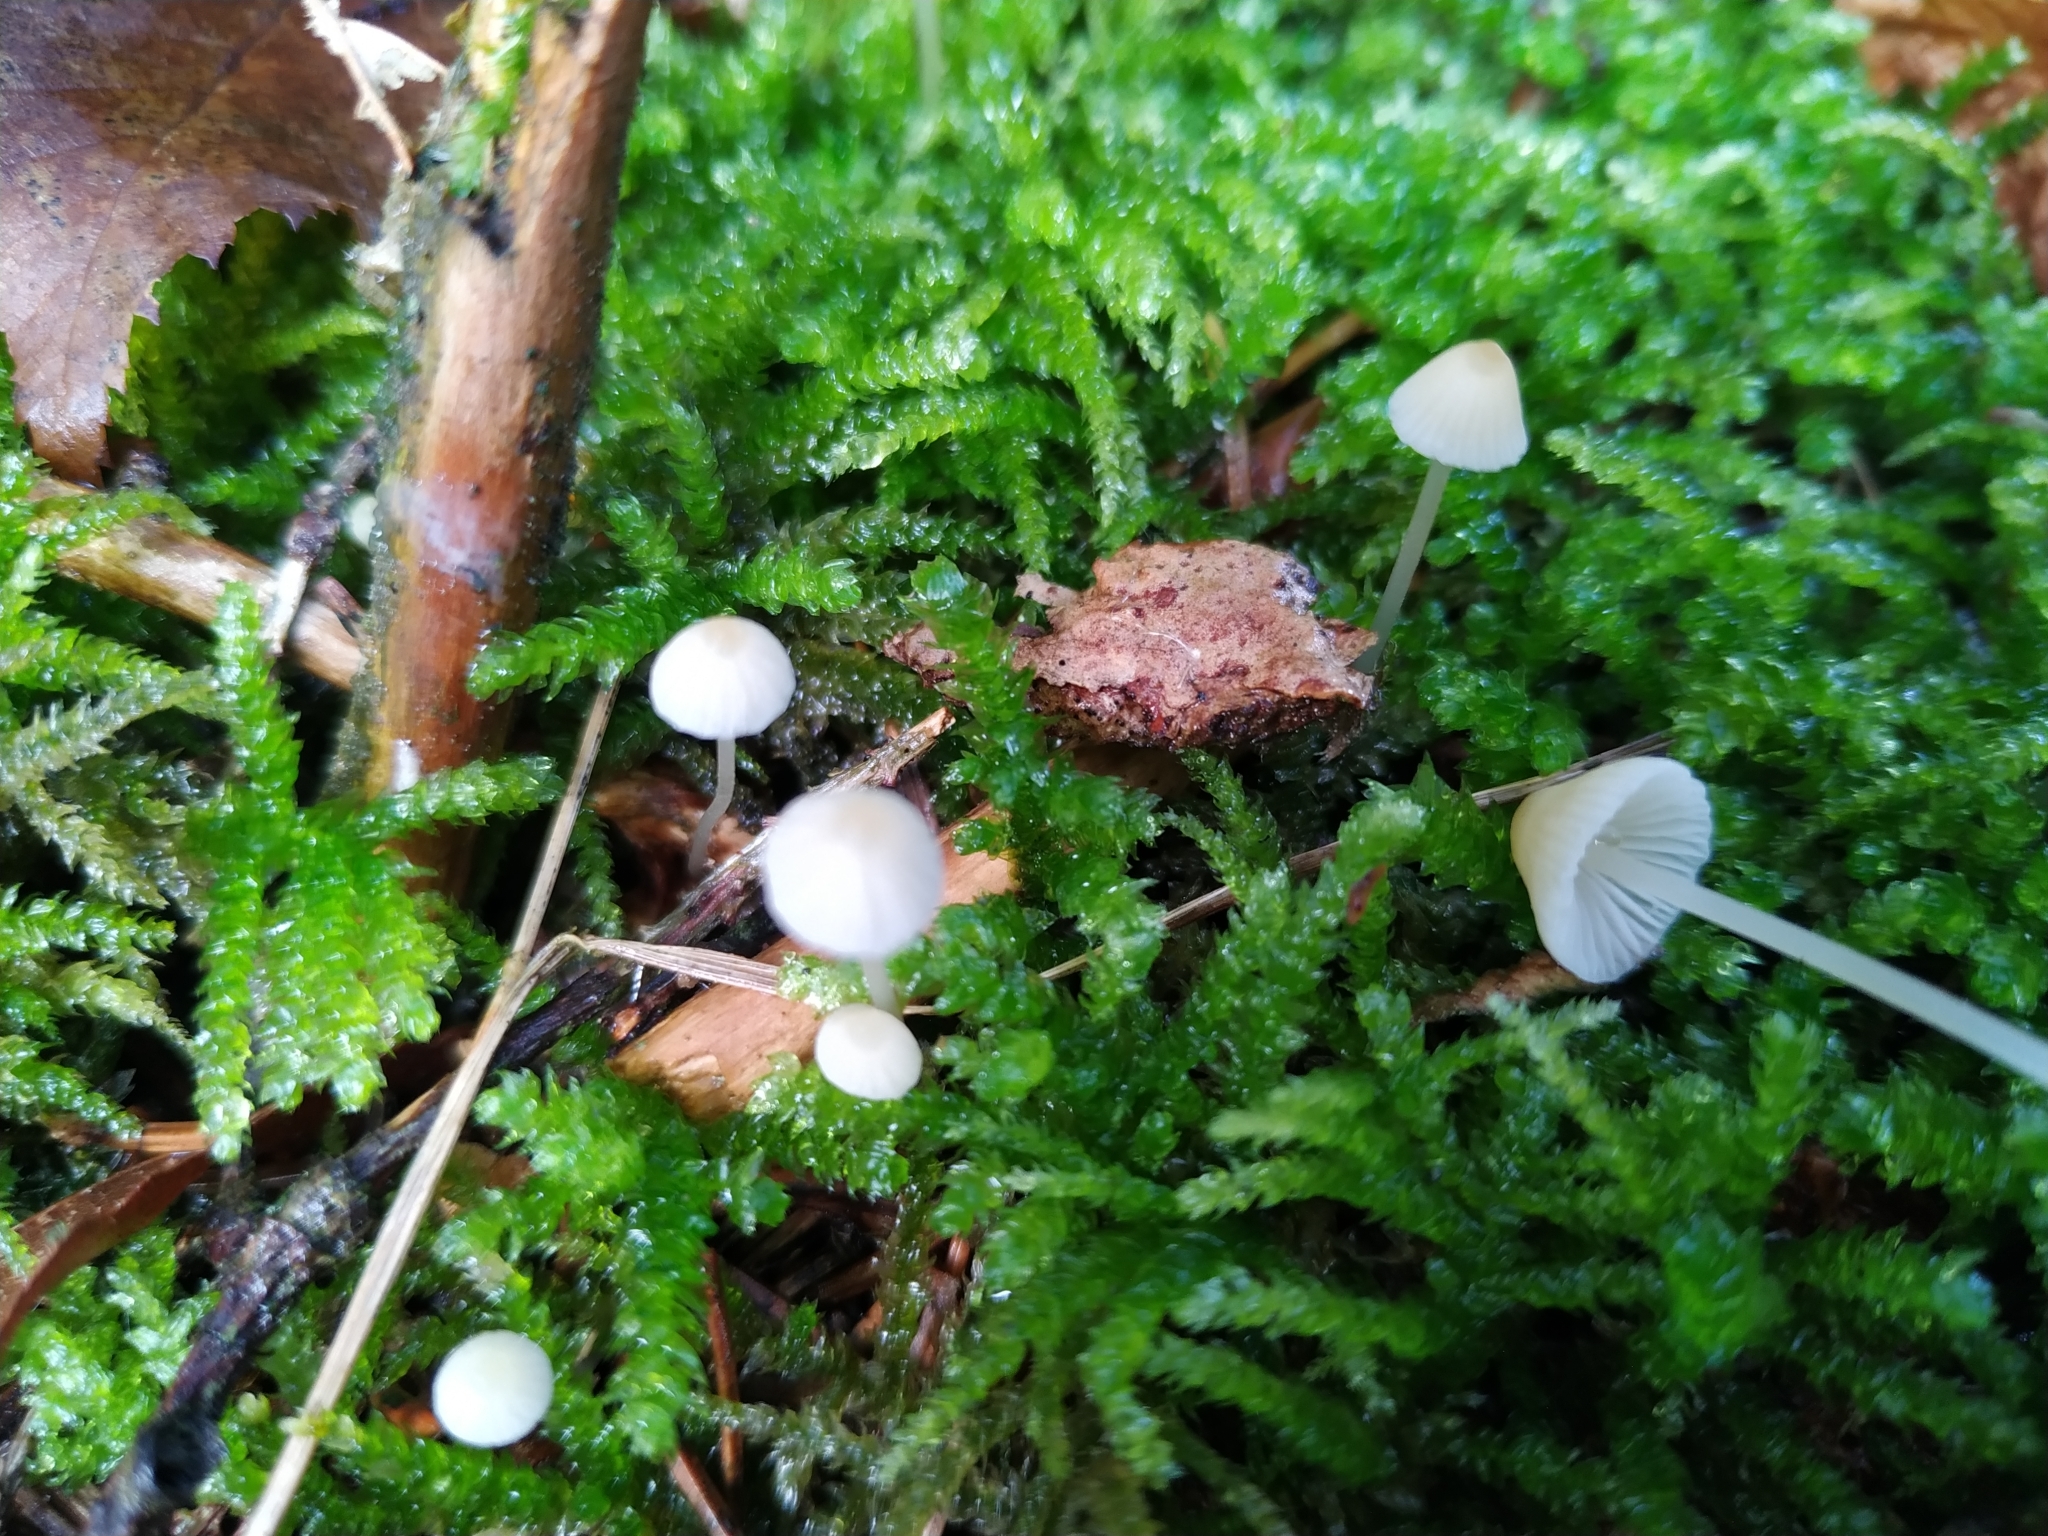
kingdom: Fungi
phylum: Basidiomycota
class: Agaricomycetes
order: Agaricales
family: Mycenaceae
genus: Mycena
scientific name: Mycena galericulata
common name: Bonnet mycena
